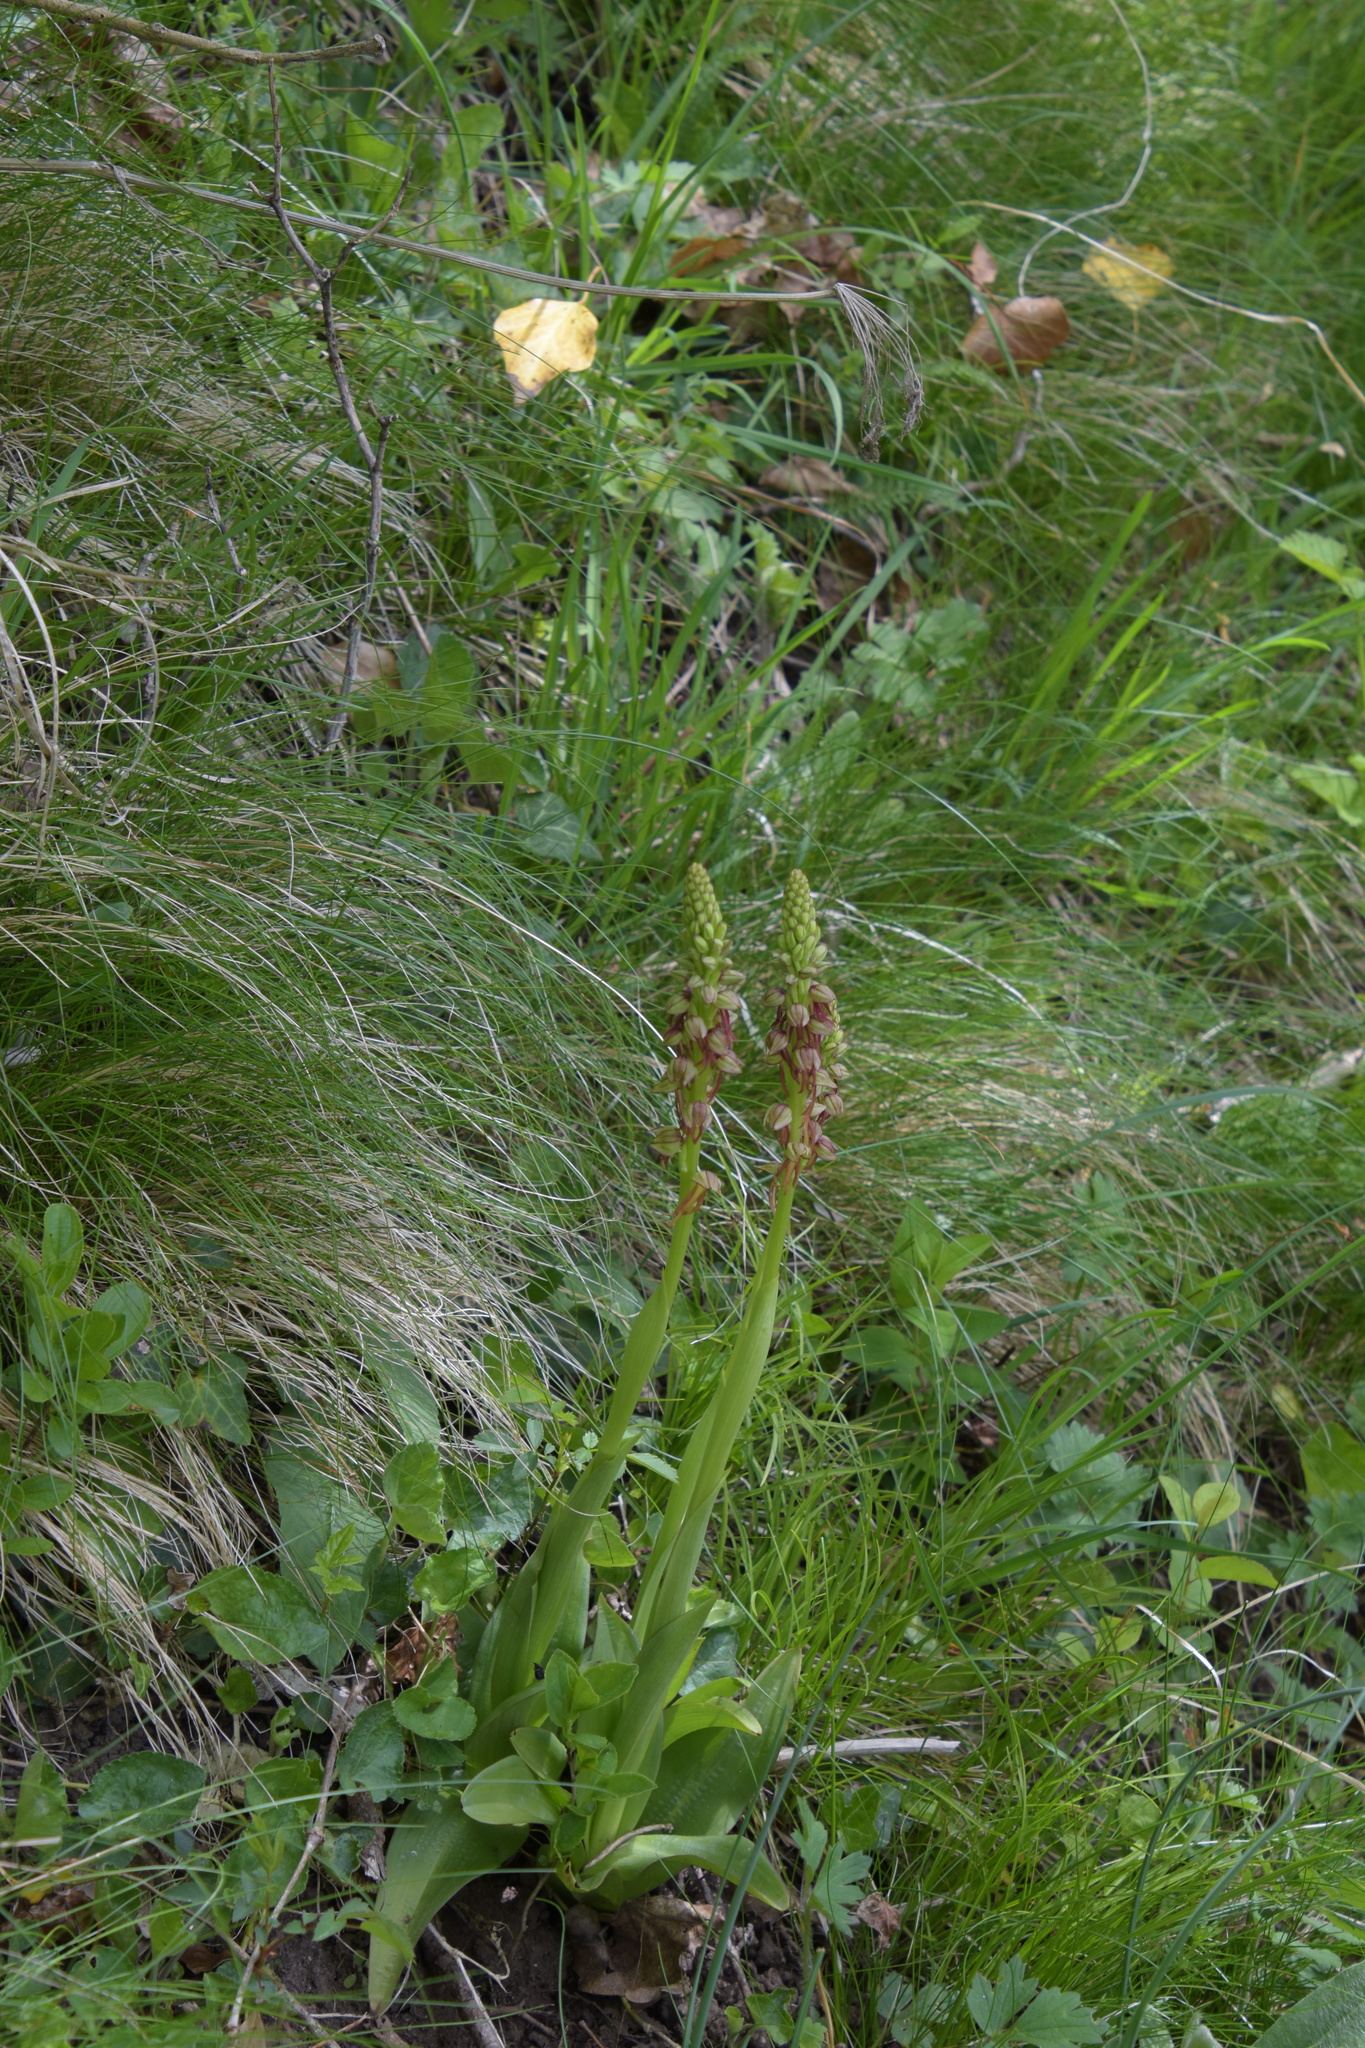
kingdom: Plantae
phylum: Tracheophyta
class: Liliopsida
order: Asparagales
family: Orchidaceae
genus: Orchis
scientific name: Orchis anthropophora
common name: Man orchid
